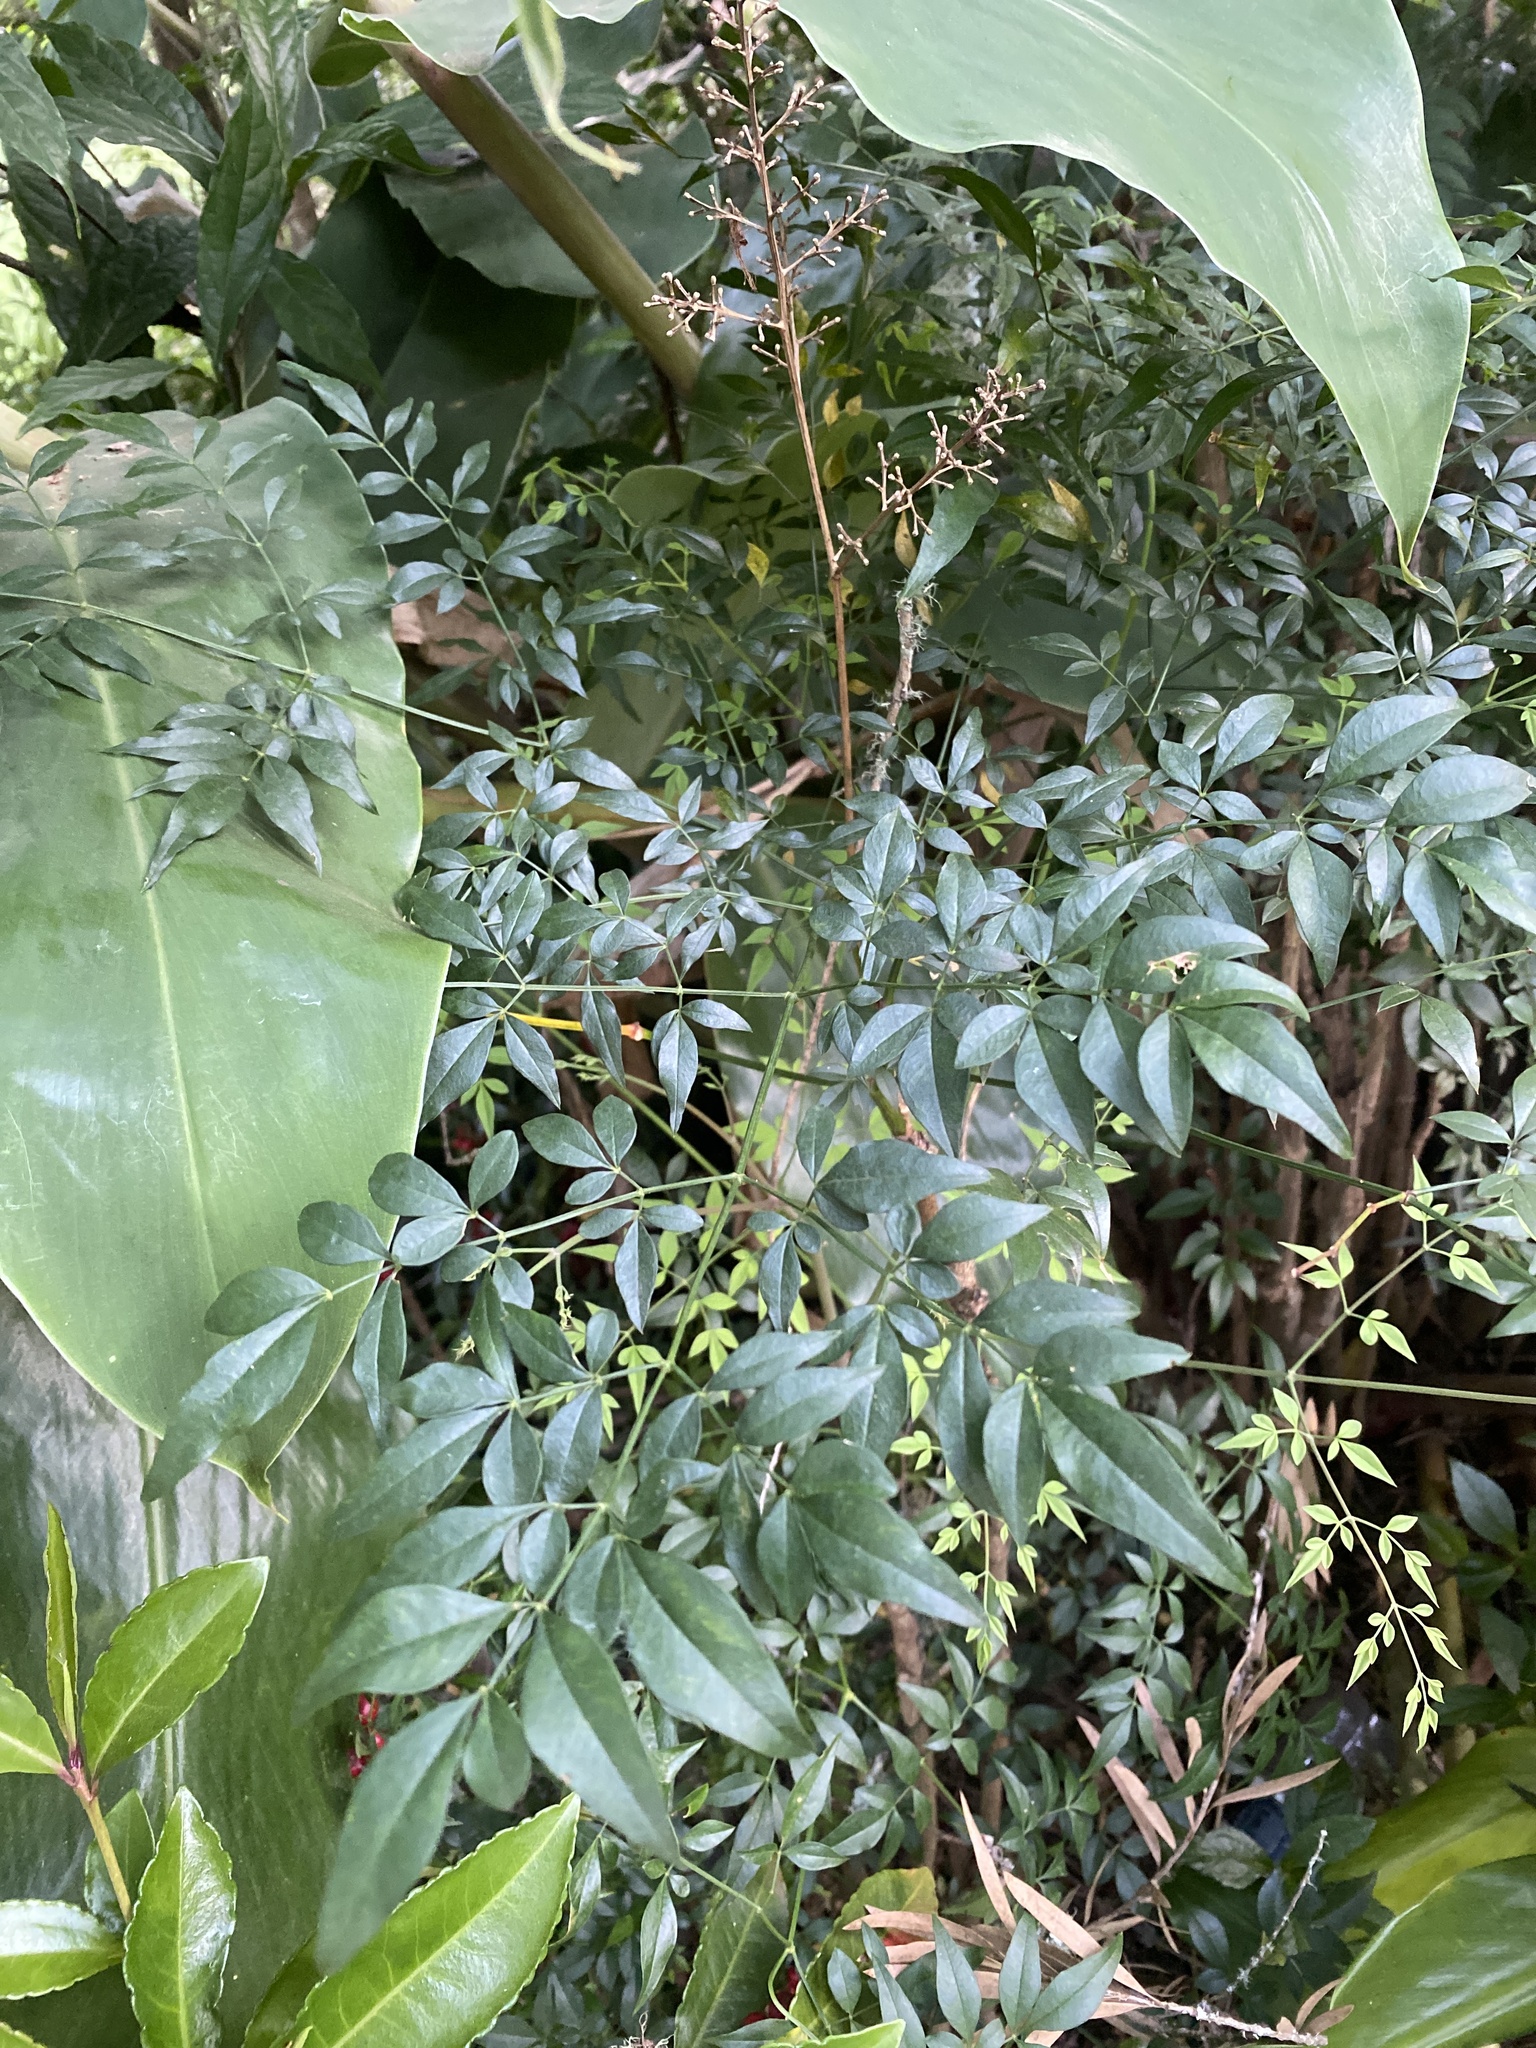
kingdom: Plantae
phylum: Tracheophyta
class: Magnoliopsida
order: Ranunculales
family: Berberidaceae
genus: Nandina
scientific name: Nandina domestica
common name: Sacred bamboo
